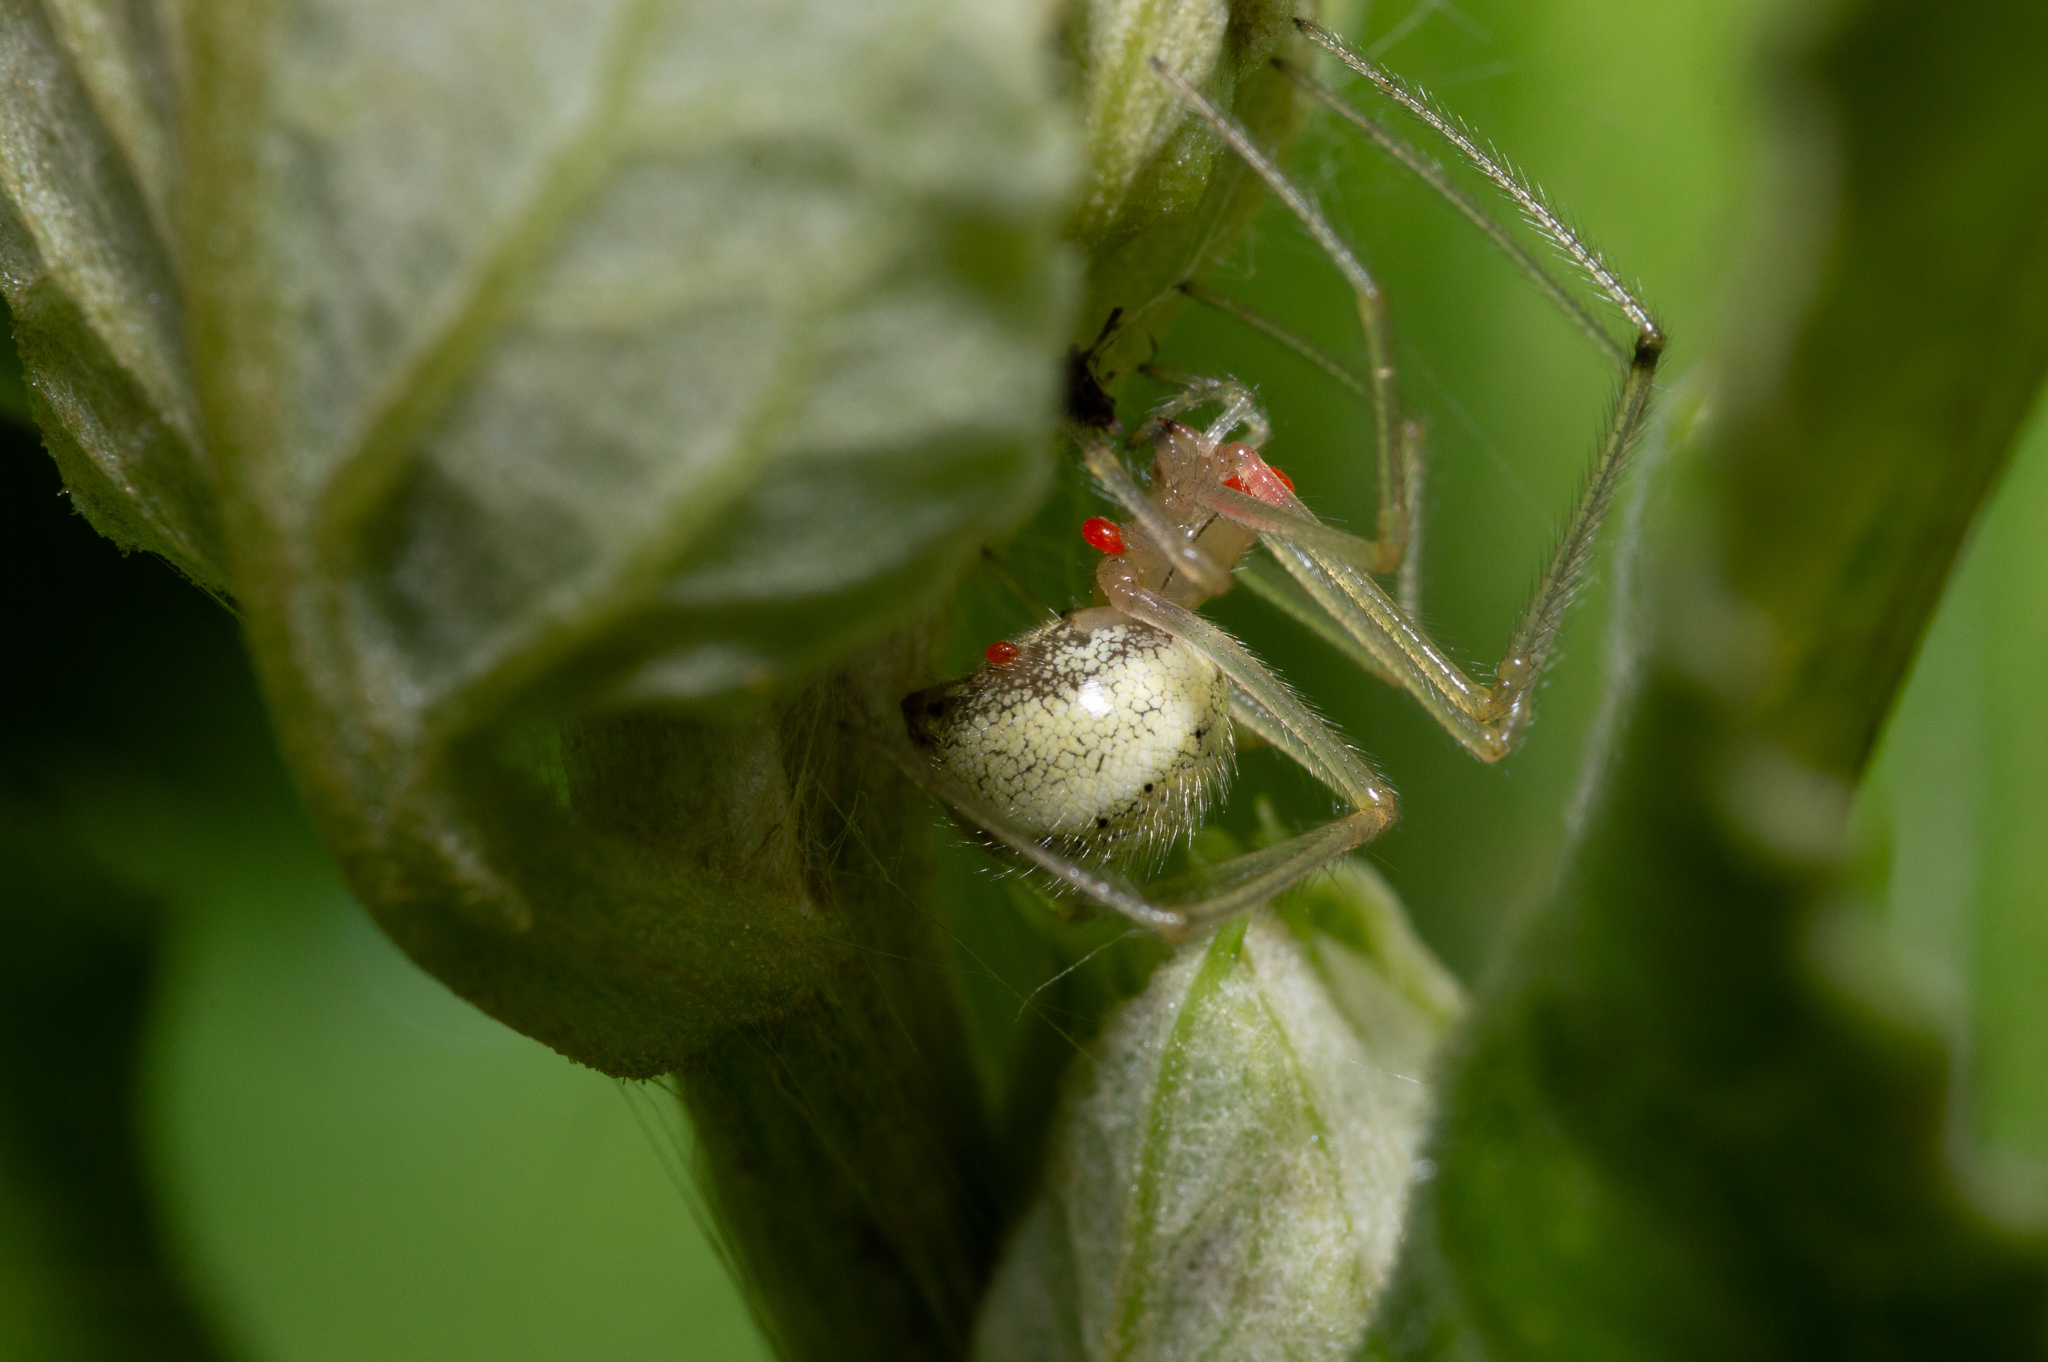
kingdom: Animalia
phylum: Arthropoda
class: Arachnida
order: Araneae
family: Theridiidae
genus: Enoplognatha
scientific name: Enoplognatha ovata
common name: Common candy-striped spider
